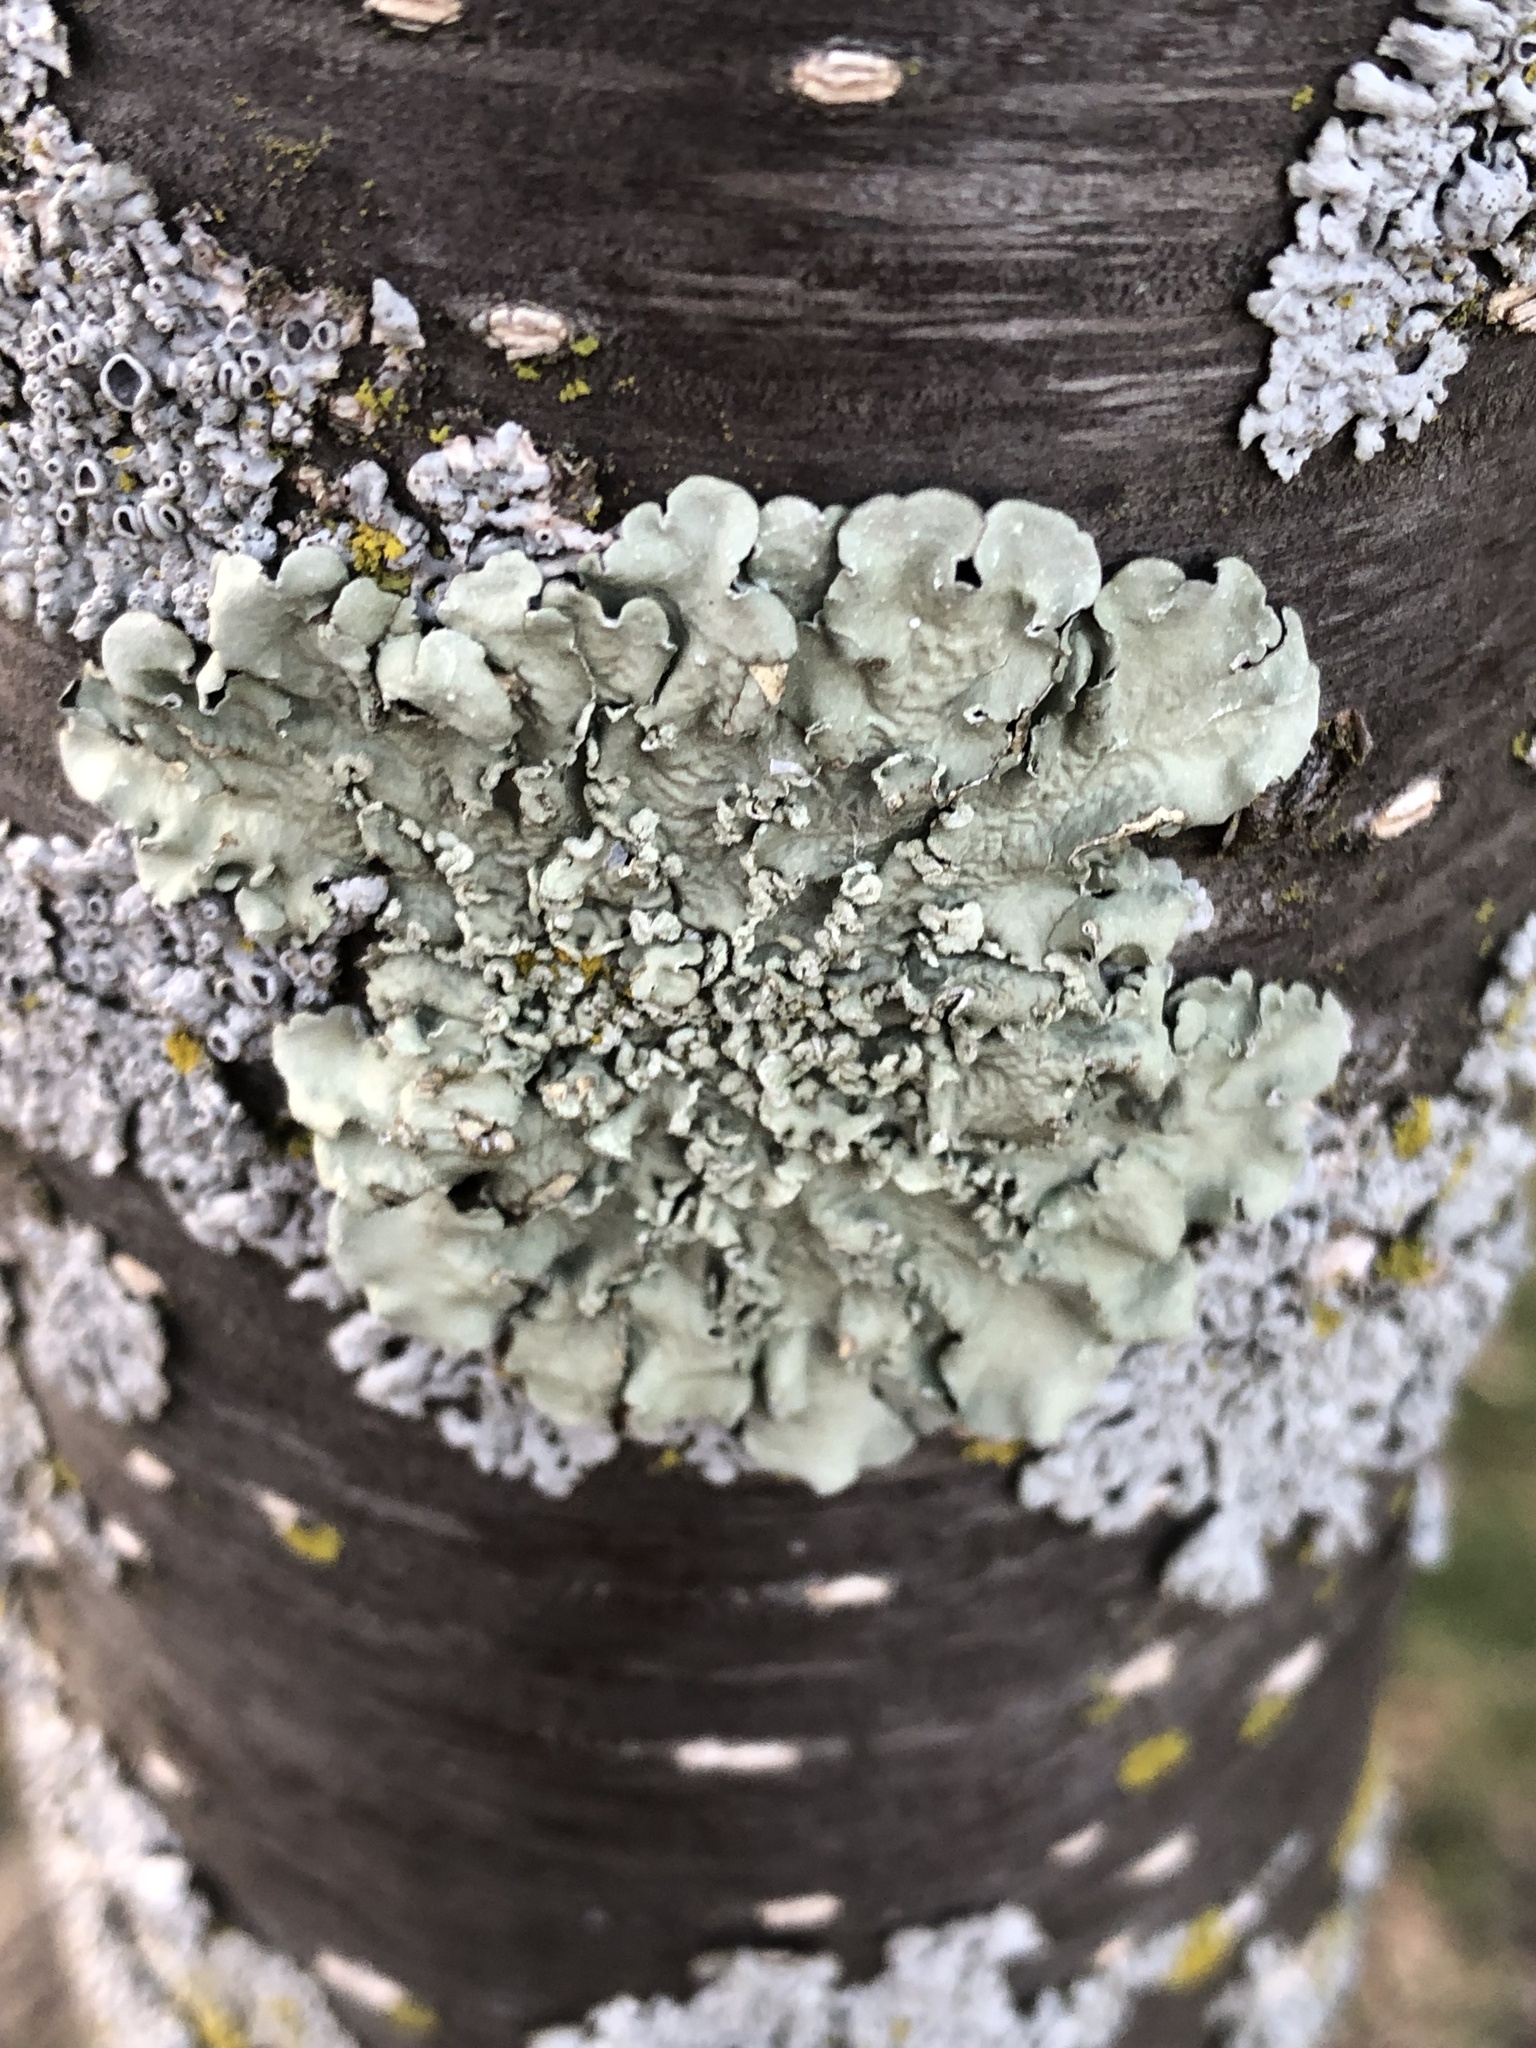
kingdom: Fungi
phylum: Ascomycota
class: Lecanoromycetes
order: Lecanorales
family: Parmeliaceae
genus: Flavopunctelia
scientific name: Flavopunctelia soredica
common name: Powder-edged speckled greenshield
